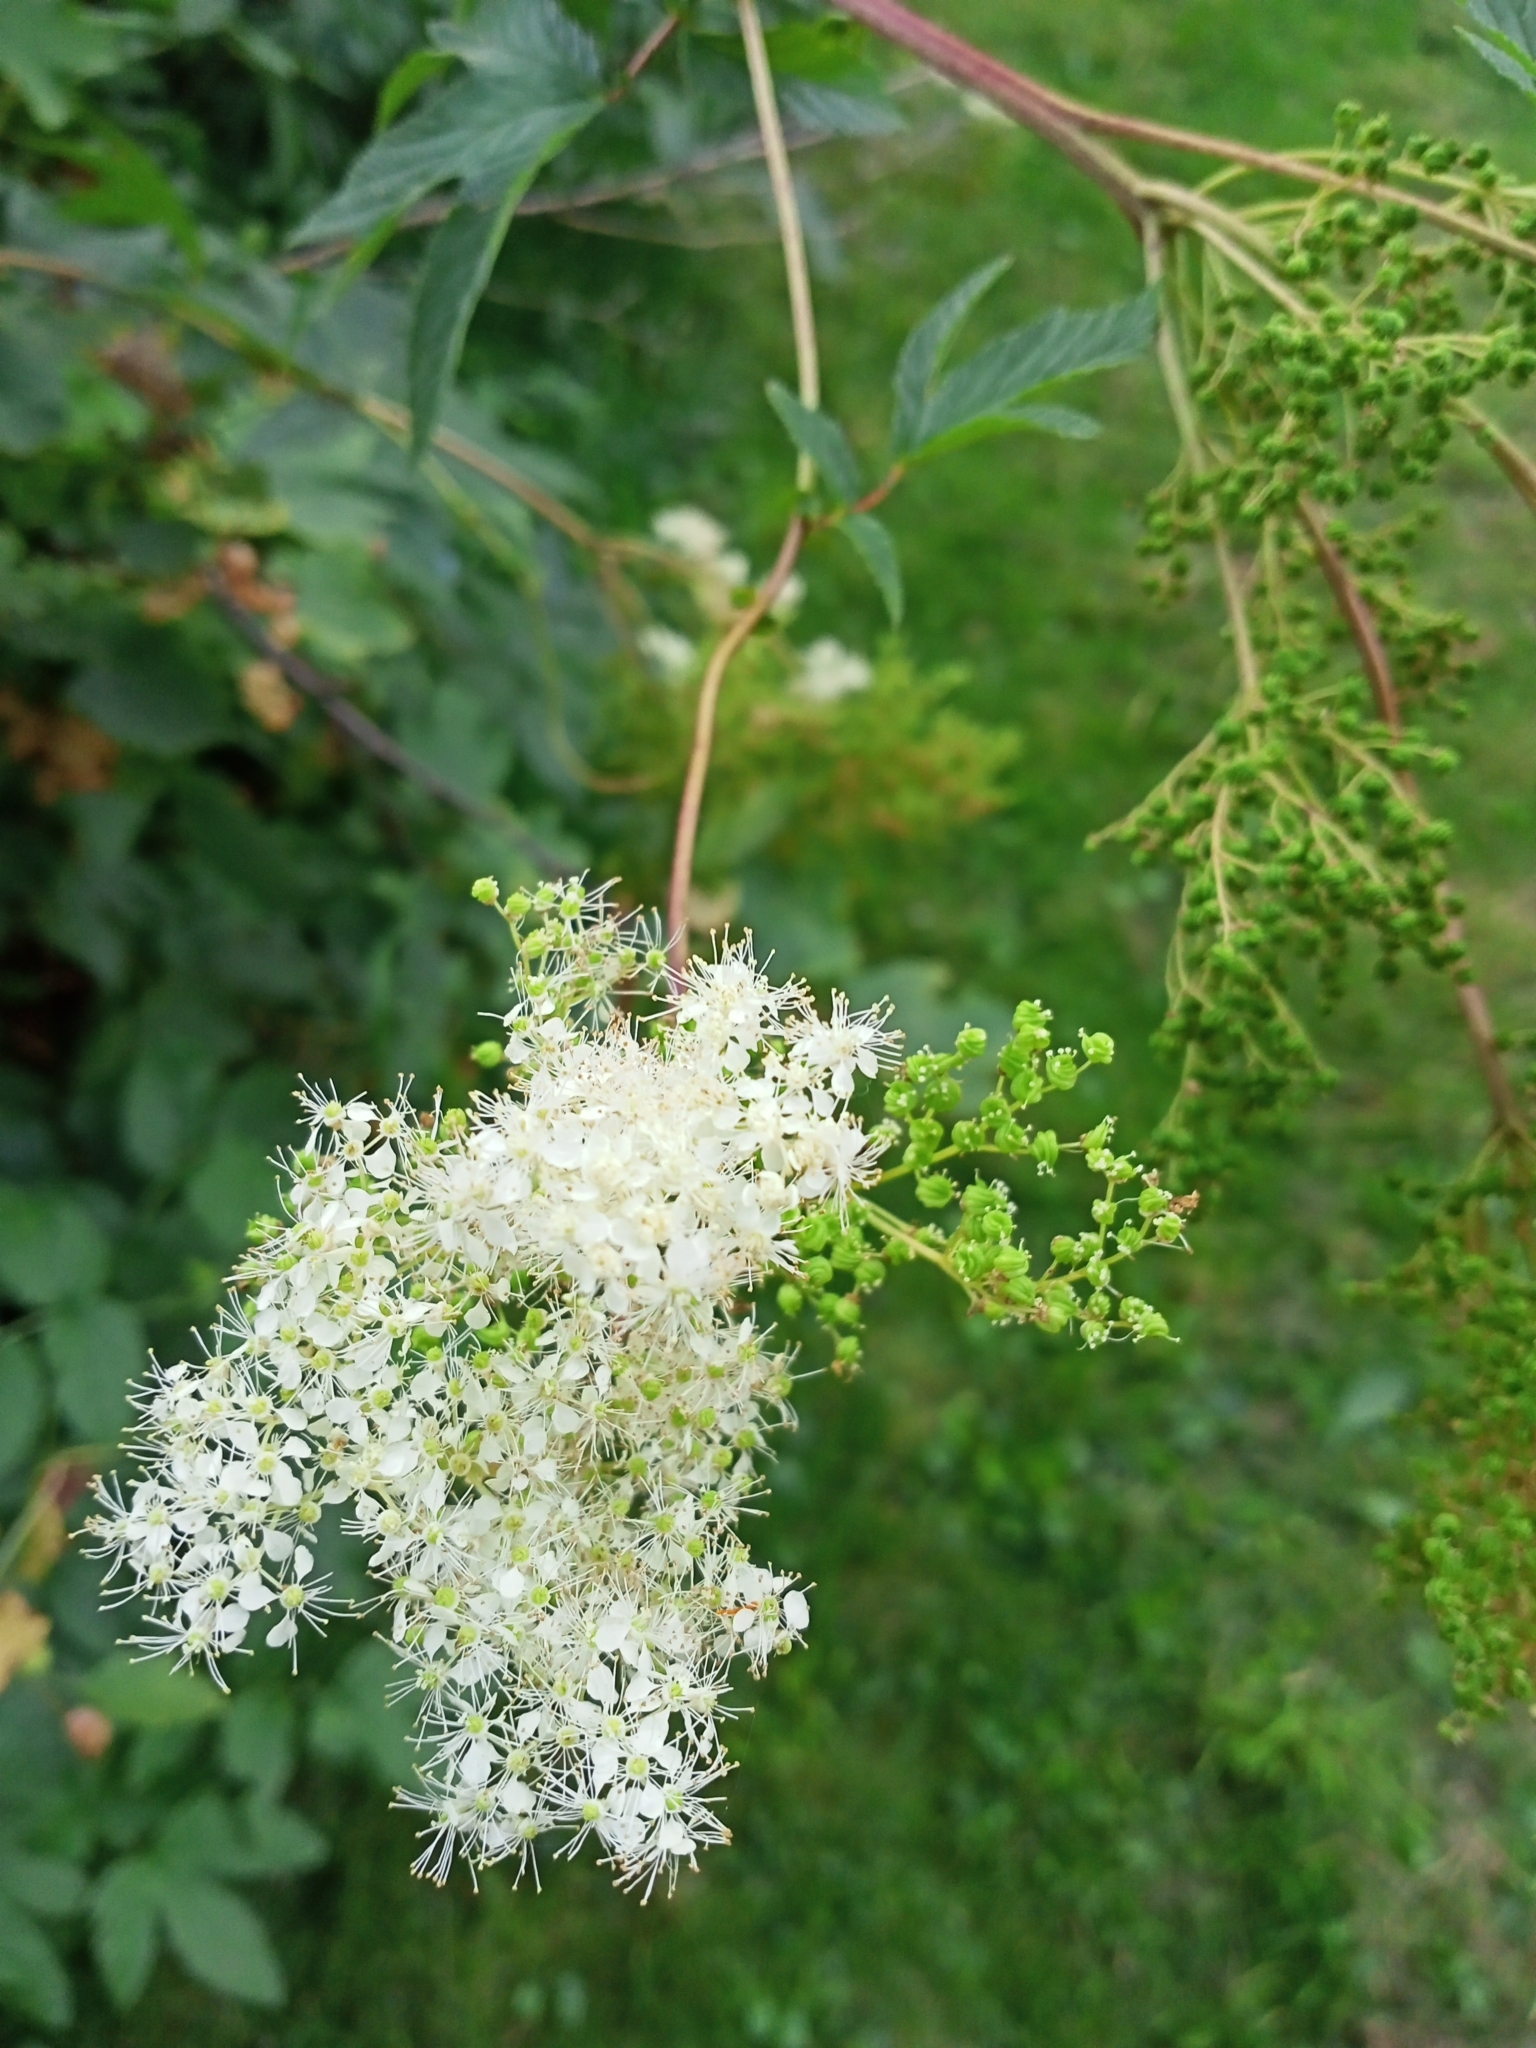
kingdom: Plantae
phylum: Tracheophyta
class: Magnoliopsida
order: Rosales
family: Rosaceae
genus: Filipendula
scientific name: Filipendula ulmaria
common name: Meadowsweet
